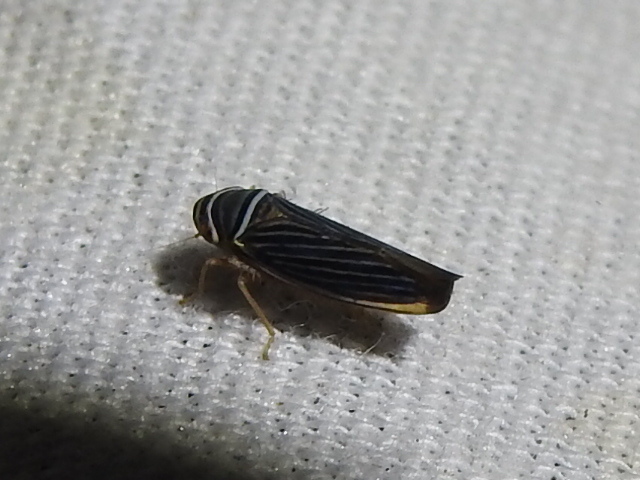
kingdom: Animalia
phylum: Arthropoda
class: Insecta
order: Hemiptera
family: Cicadellidae
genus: Tylozygus
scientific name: Tylozygus bifidus
